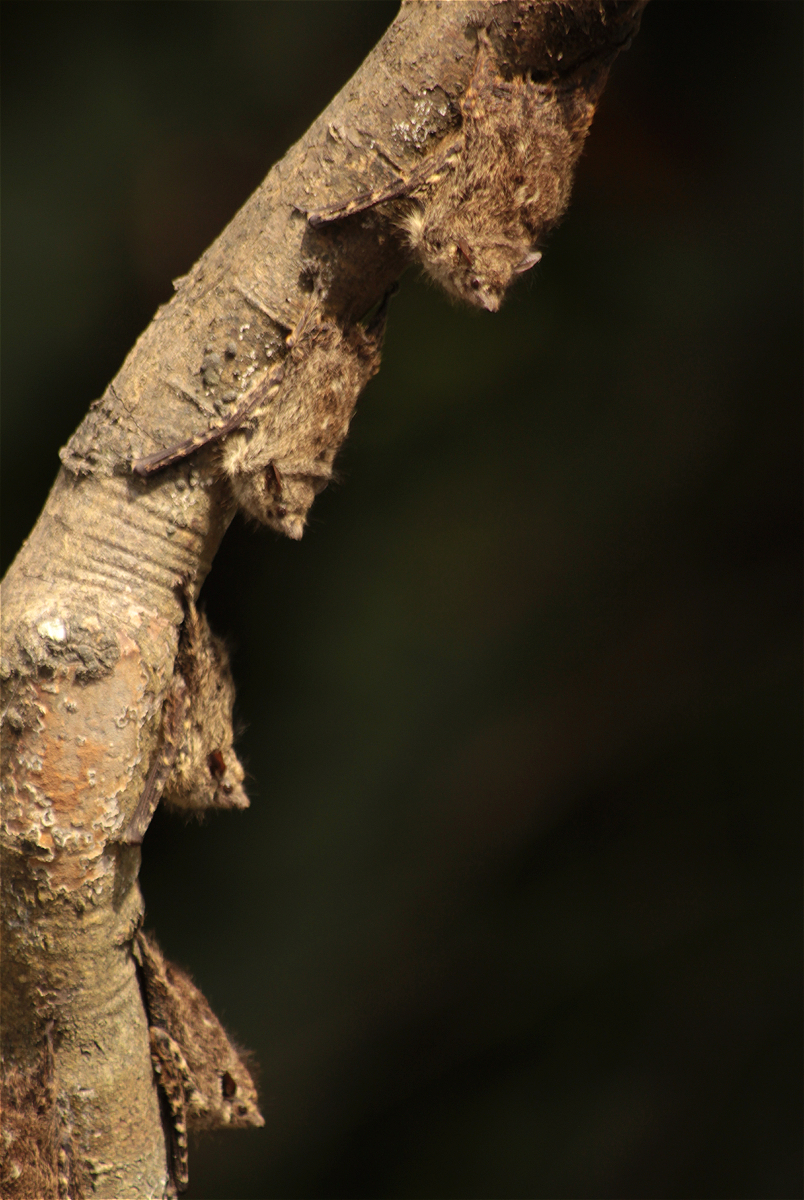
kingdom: Animalia
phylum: Chordata
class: Mammalia
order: Chiroptera
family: Emballonuridae
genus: Rhynchonycteris
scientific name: Rhynchonycteris naso
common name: Proboscis bat
